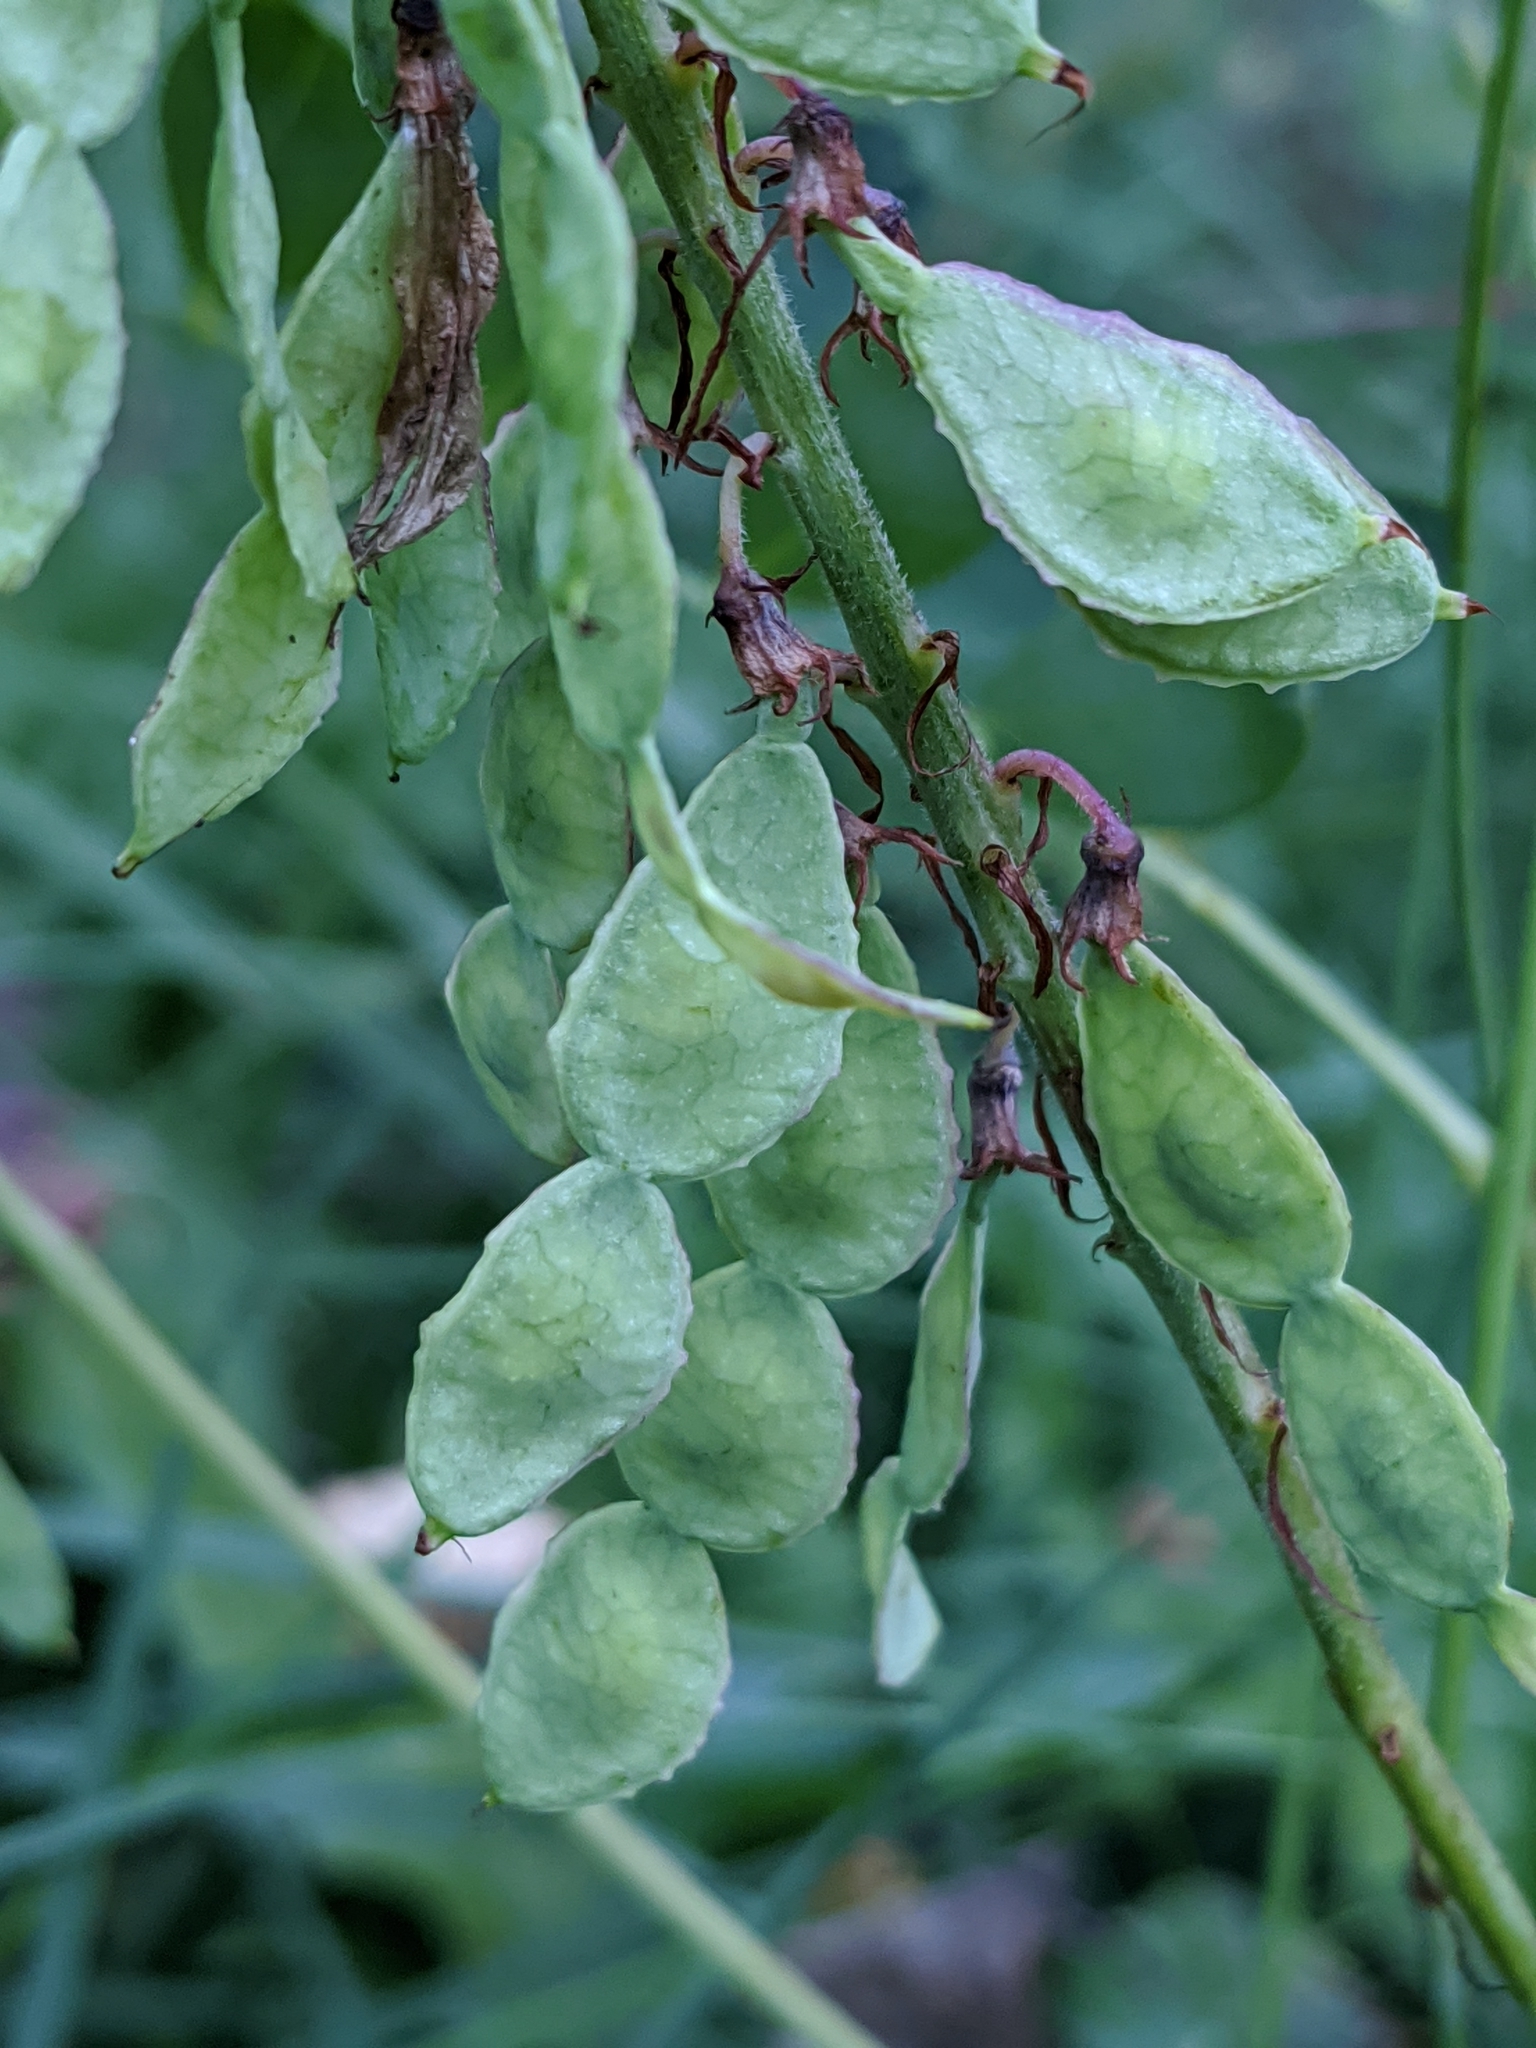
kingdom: Plantae
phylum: Tracheophyta
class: Magnoliopsida
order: Fabales
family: Fabaceae
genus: Hedysarum
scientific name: Hedysarum hedysaroides
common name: Alpine french-honeysuckle
